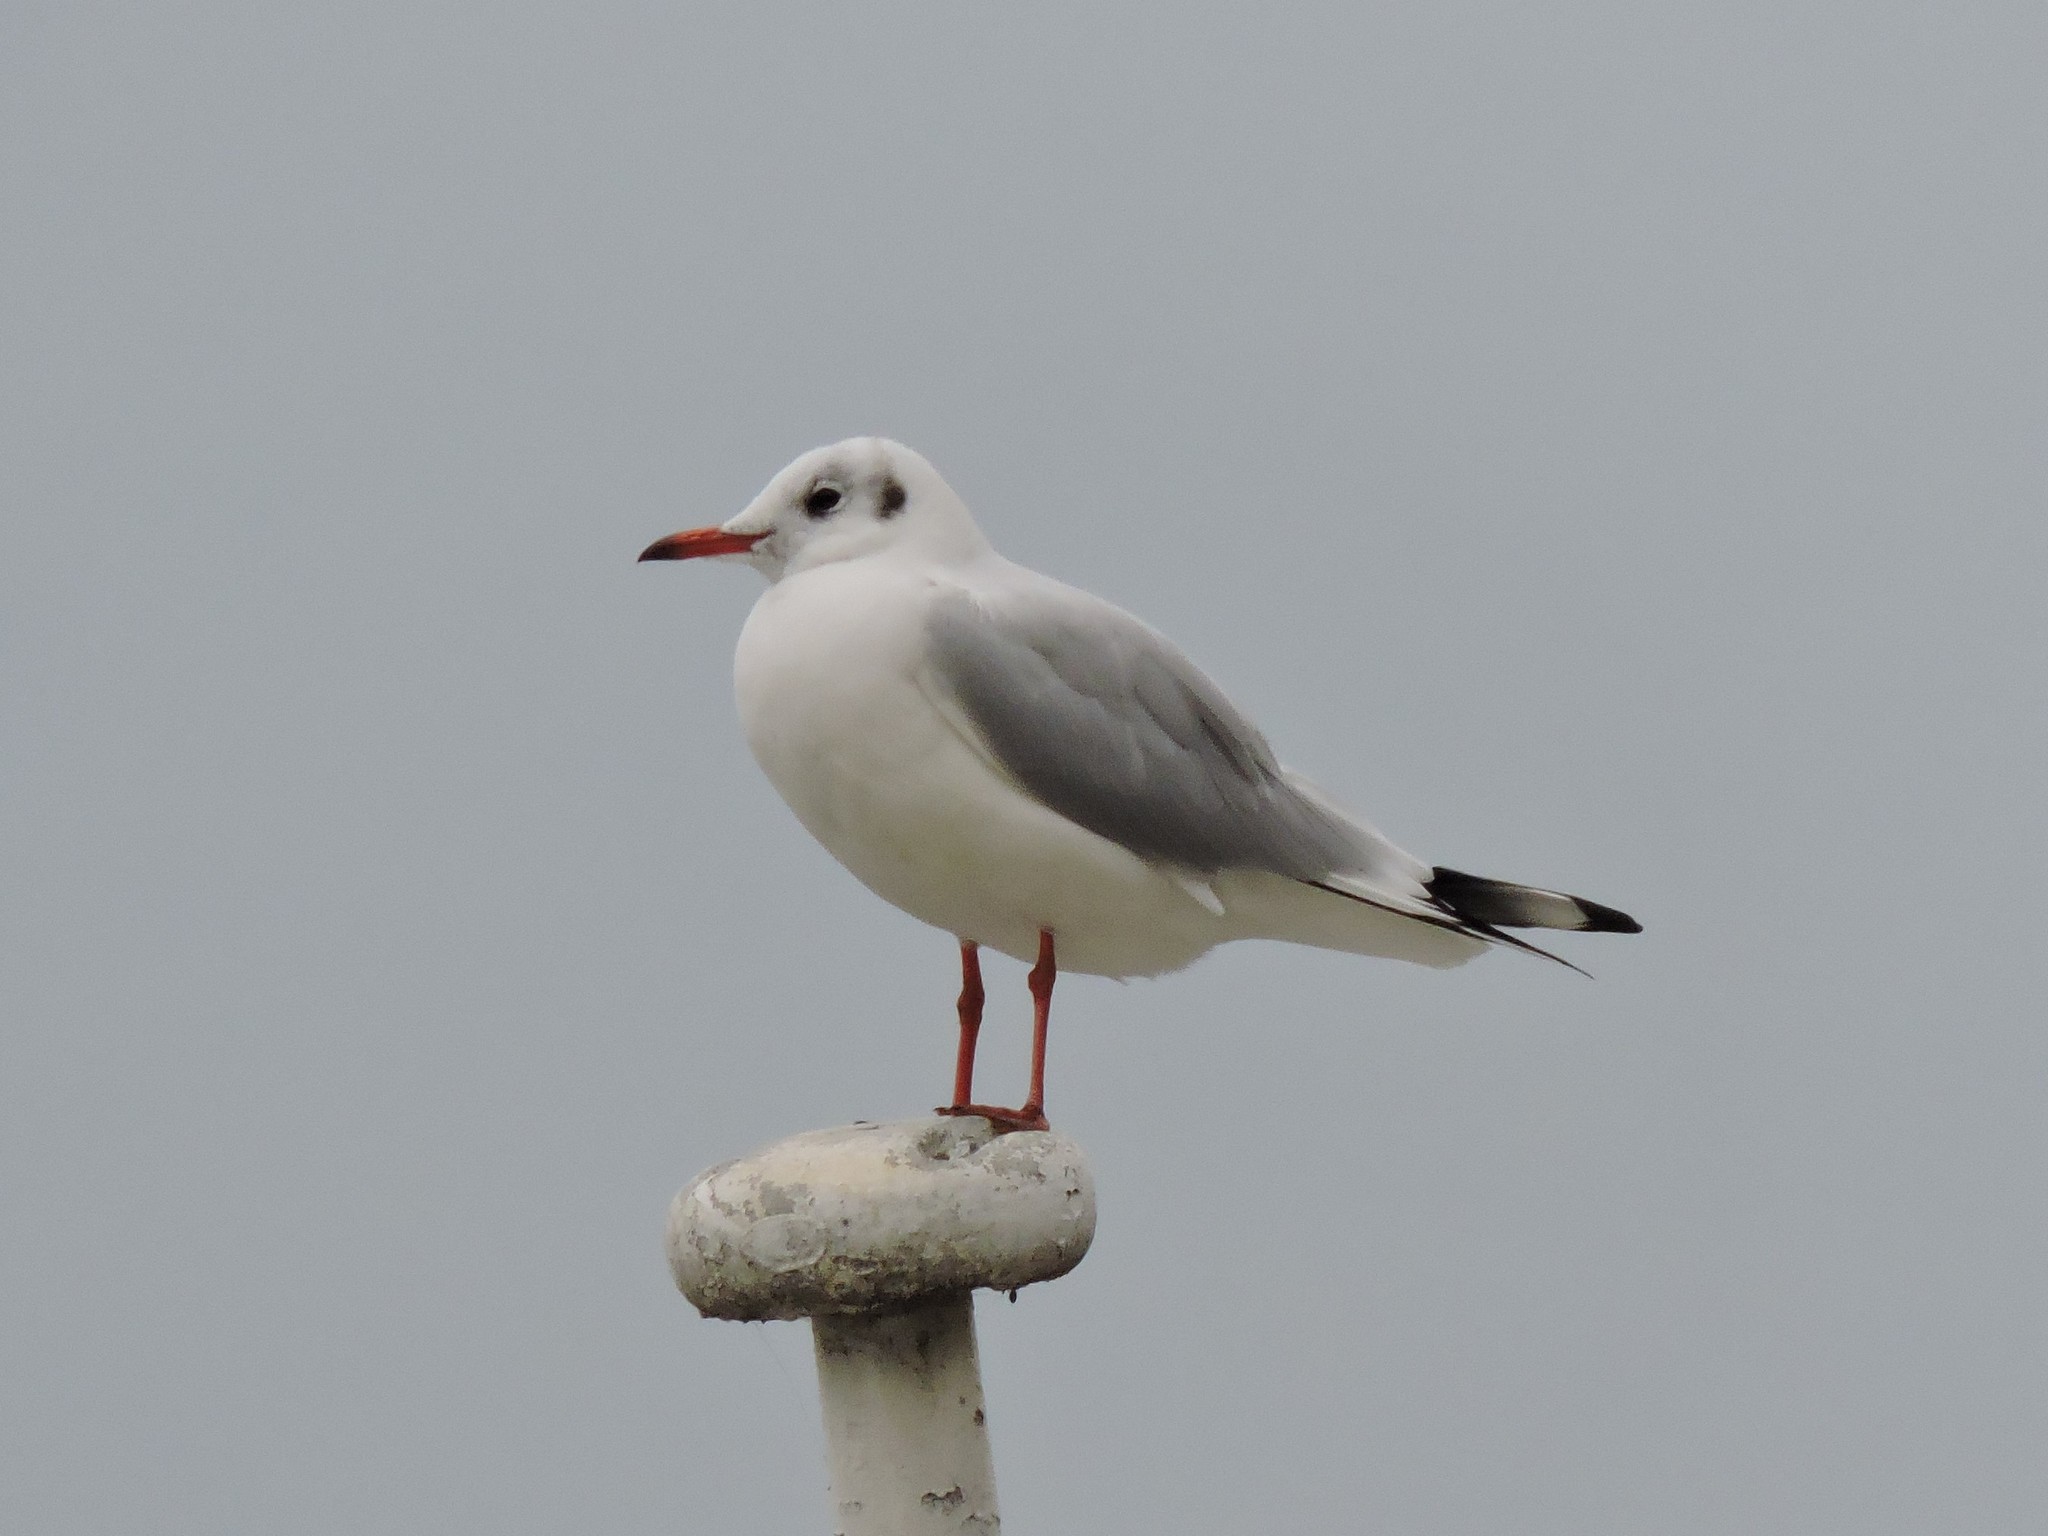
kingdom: Animalia
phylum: Chordata
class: Aves
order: Charadriiformes
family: Laridae
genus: Chroicocephalus
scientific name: Chroicocephalus ridibundus
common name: Black-headed gull
